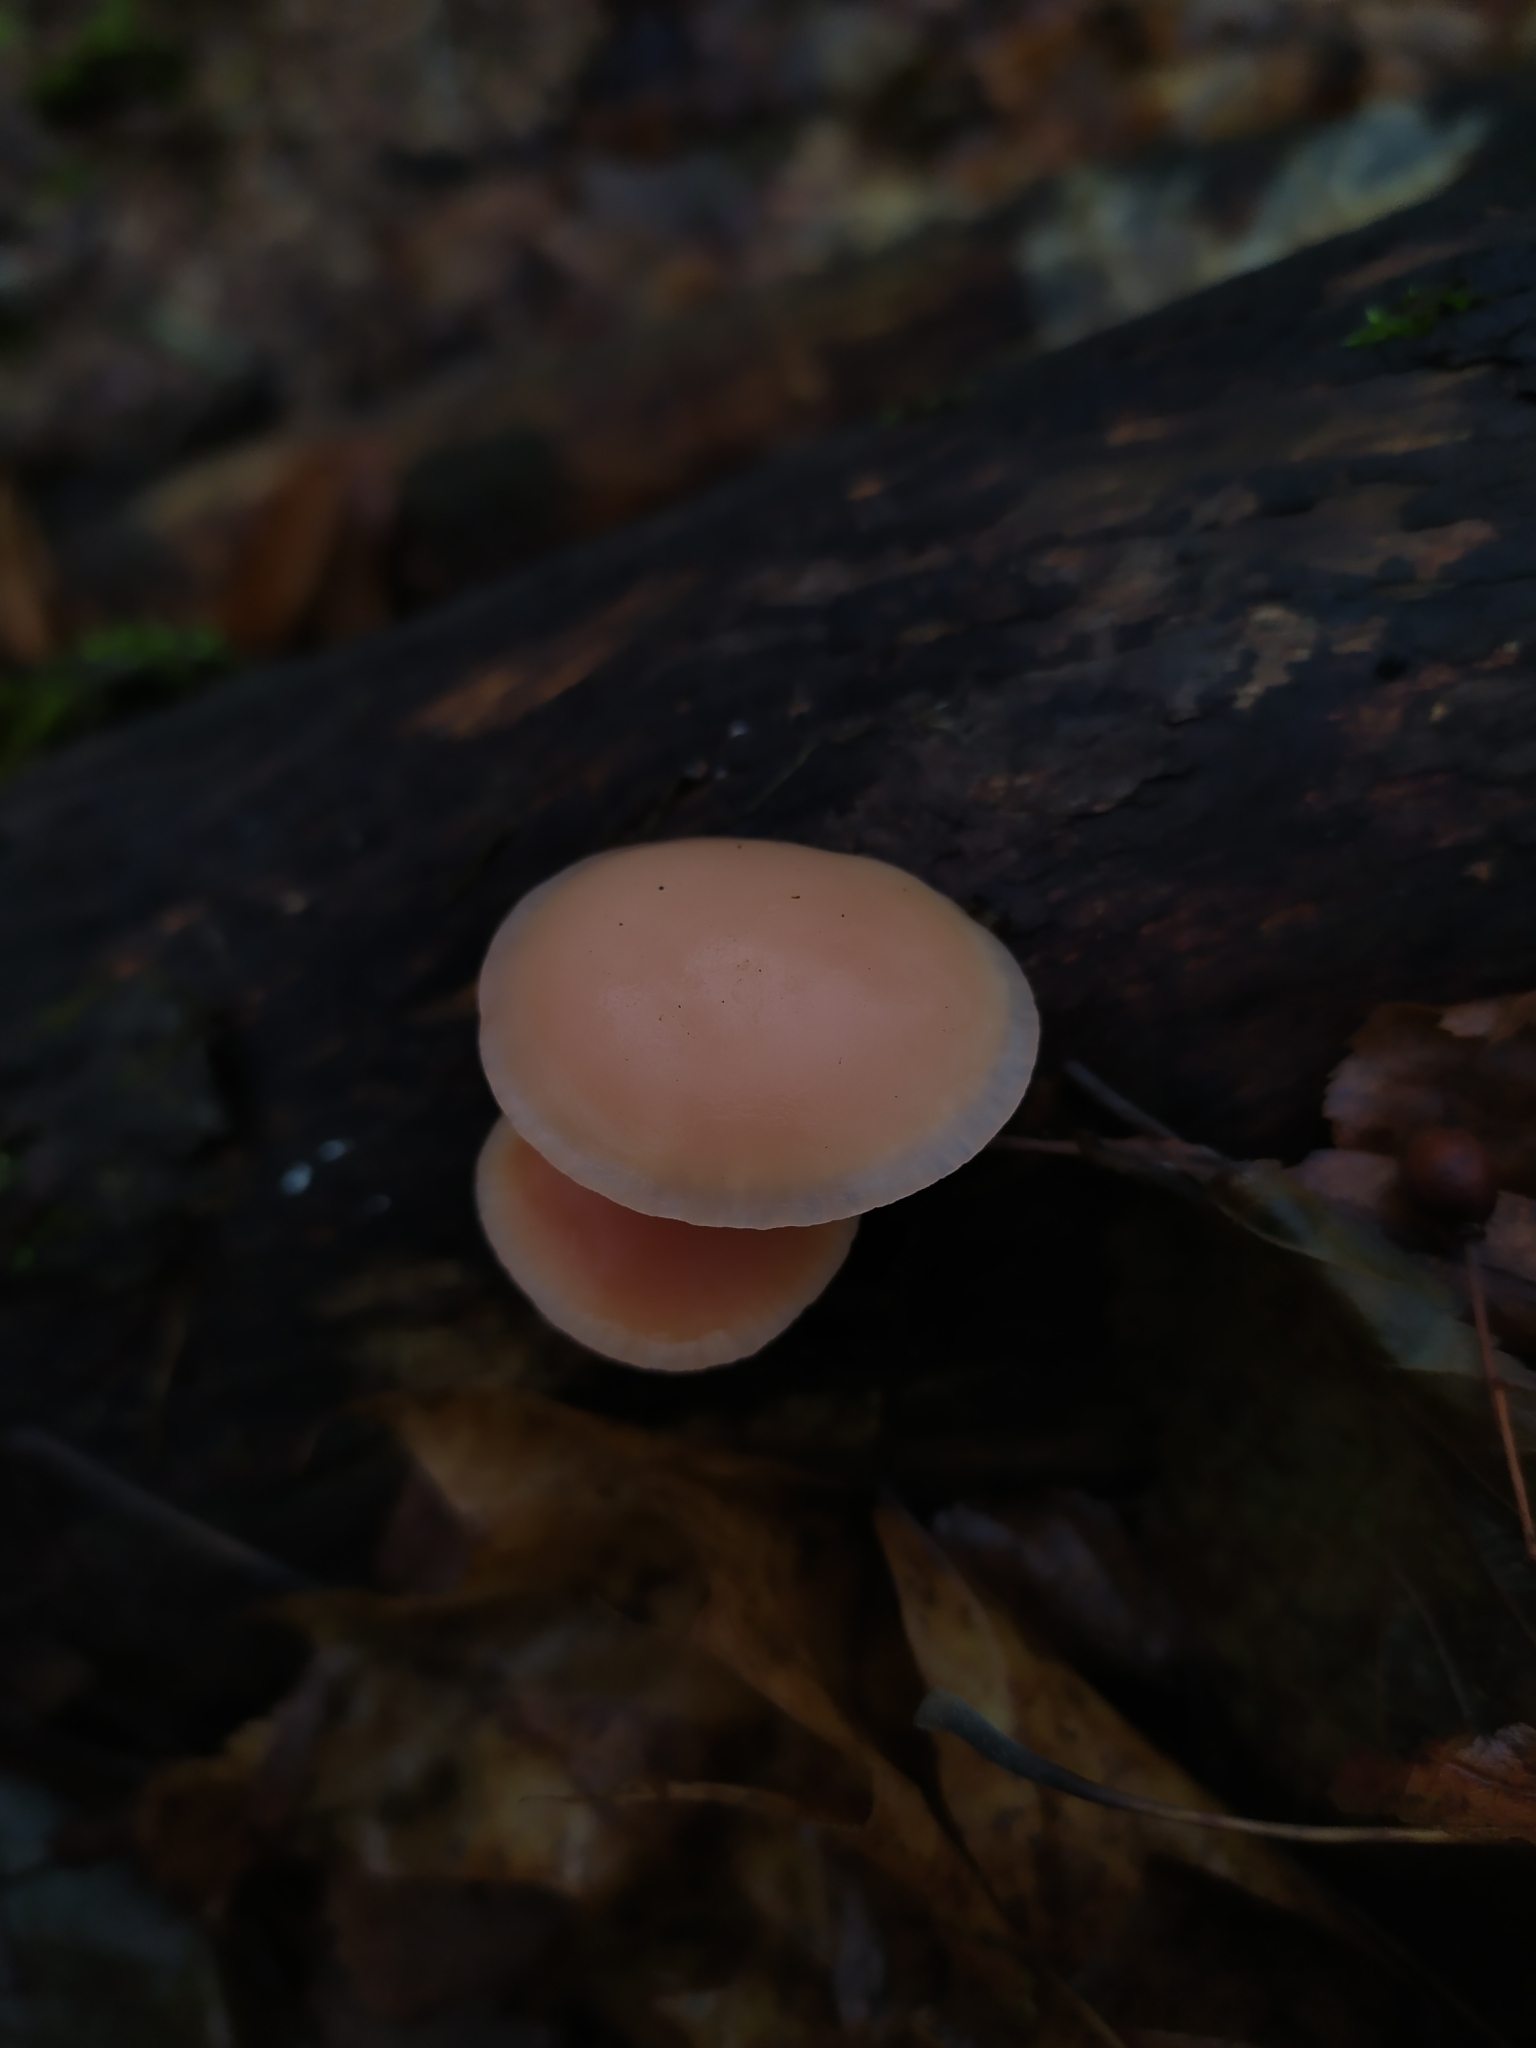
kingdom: Fungi
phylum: Basidiomycota
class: Agaricomycetes
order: Agaricales
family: Physalacriaceae
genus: Rhodotus
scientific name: Rhodotus palmatus
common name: Wrinkled peach
